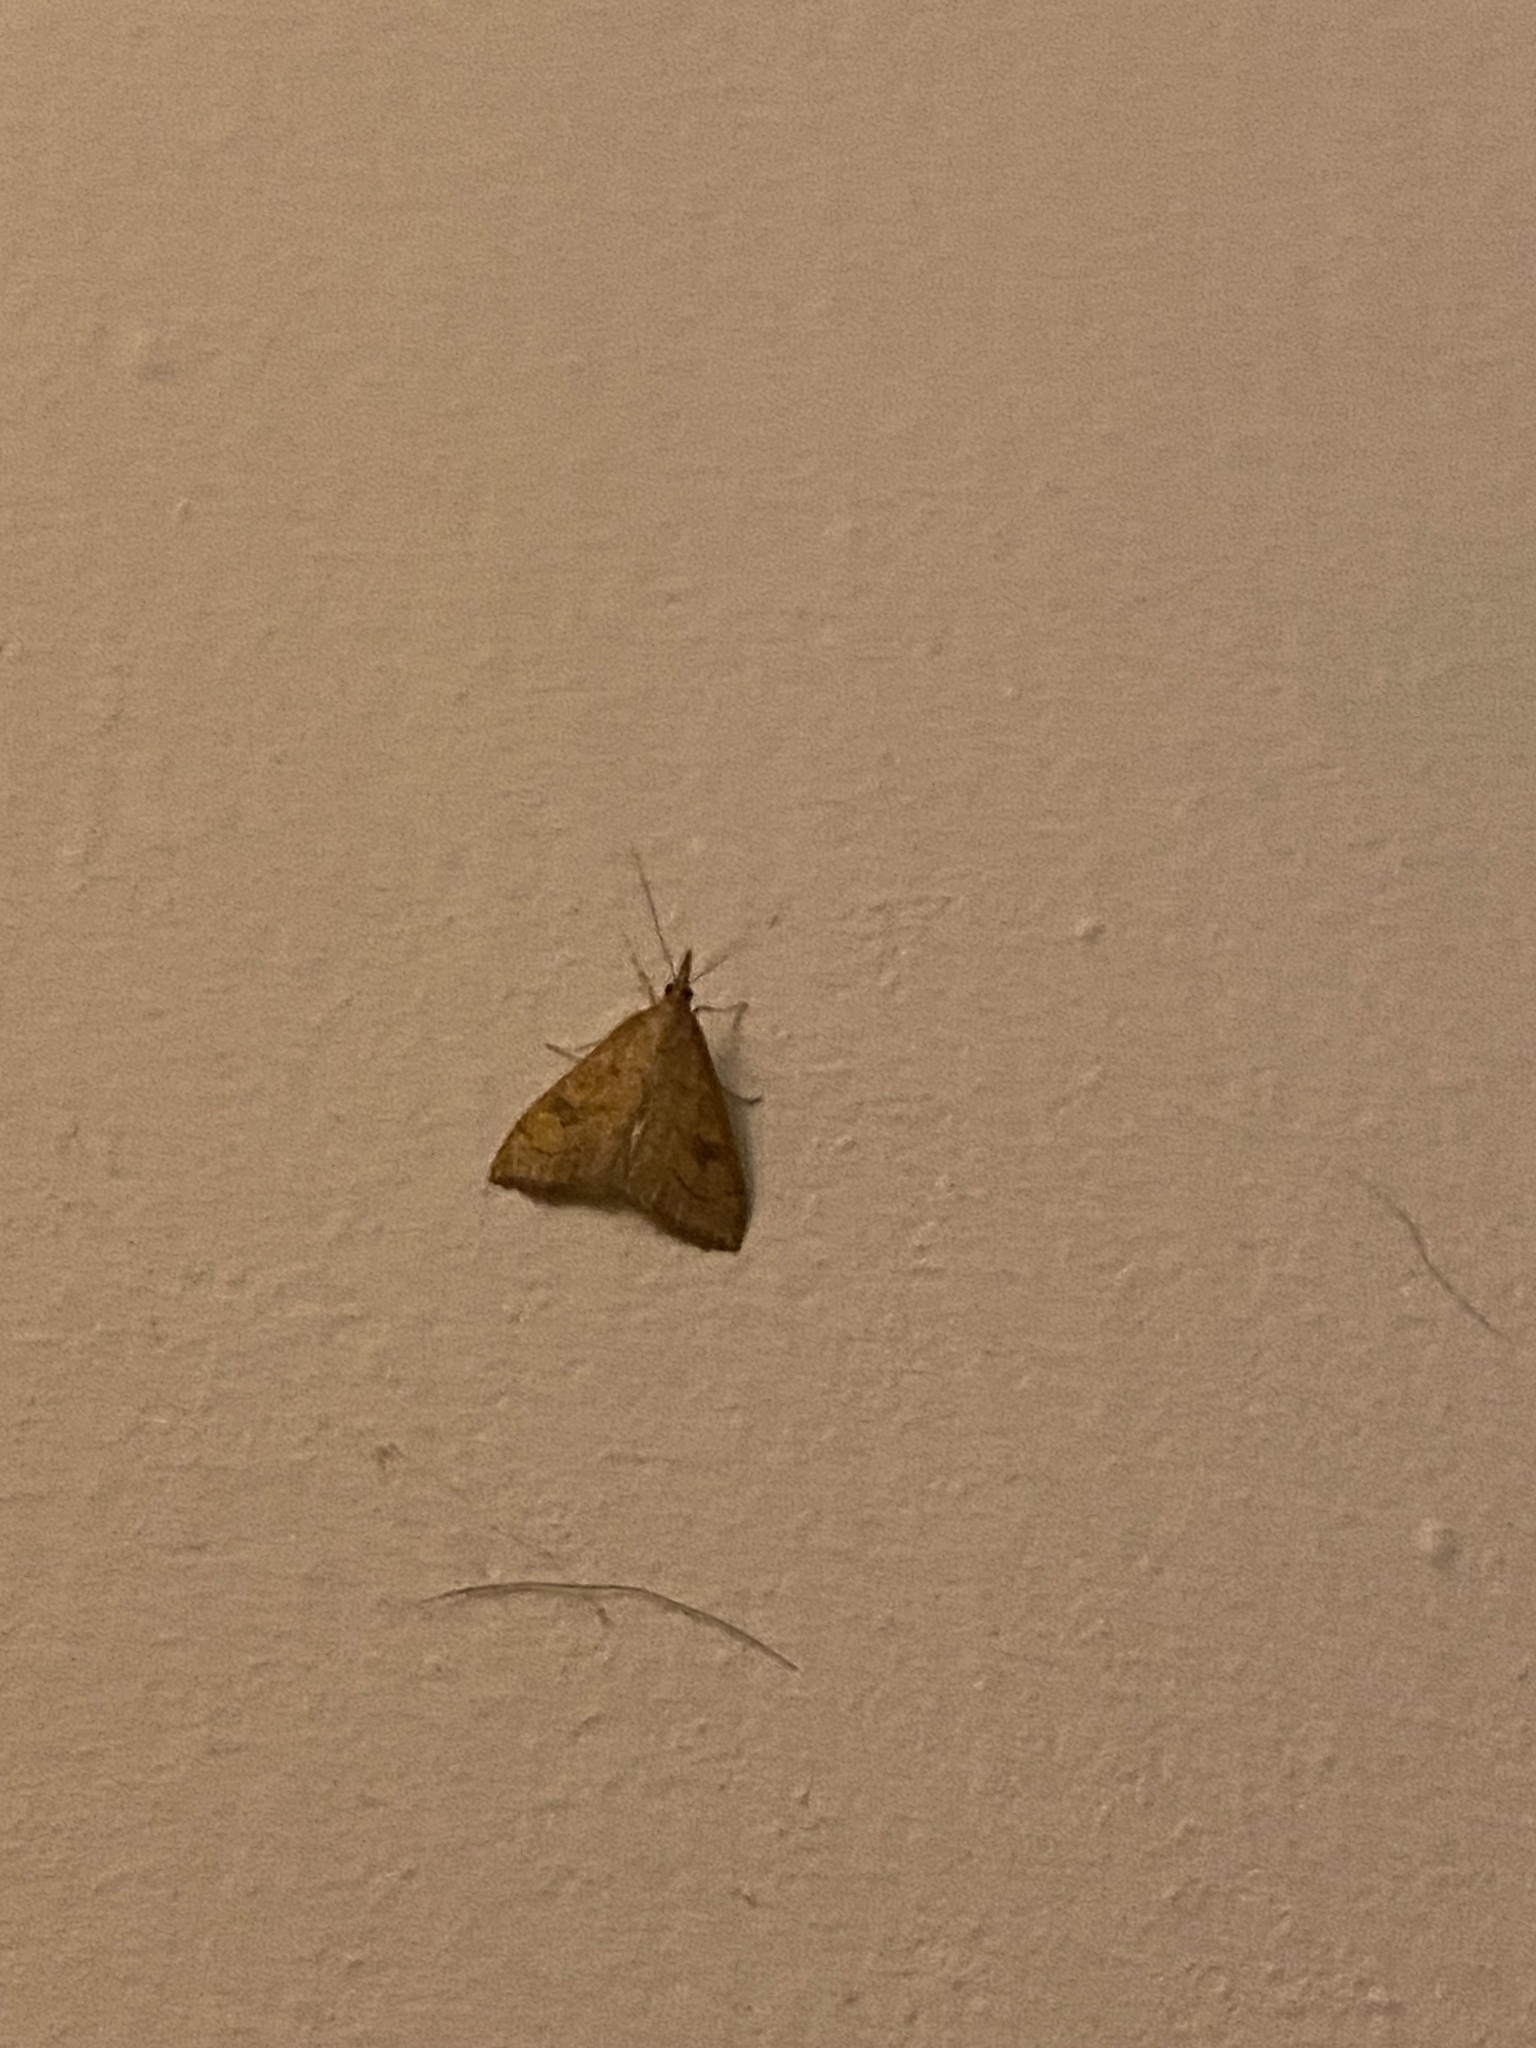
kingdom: Animalia
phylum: Arthropoda
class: Insecta
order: Lepidoptera
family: Crambidae
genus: Udea
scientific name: Udea profundalis
